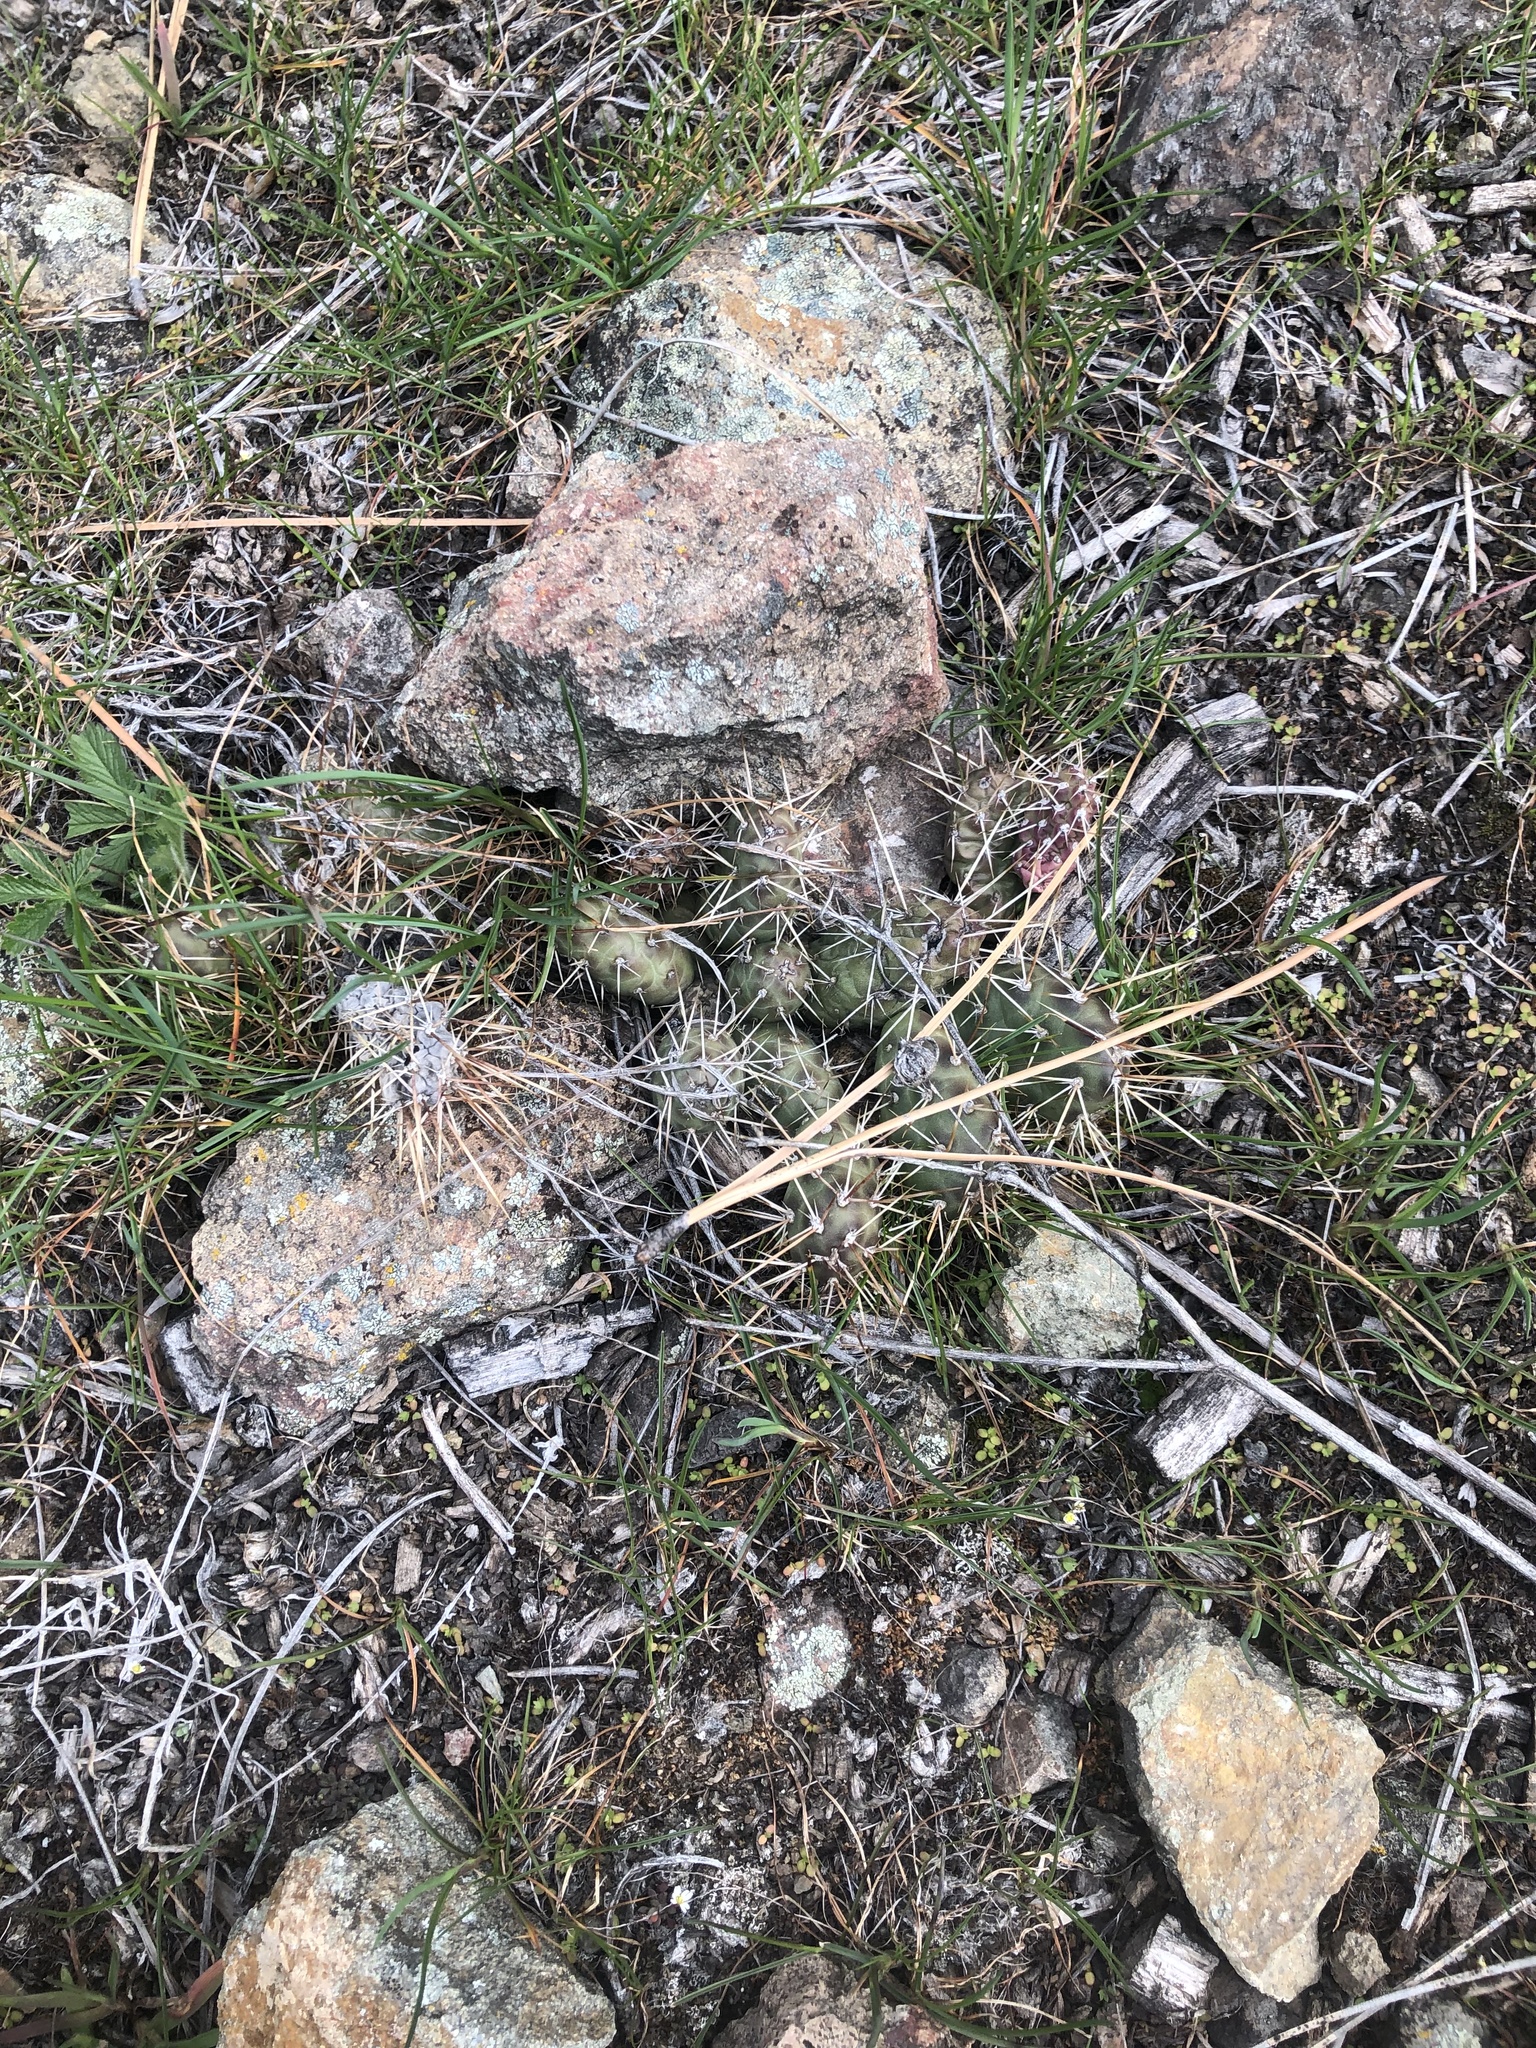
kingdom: Plantae
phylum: Tracheophyta
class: Magnoliopsida
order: Caryophyllales
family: Cactaceae
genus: Opuntia
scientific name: Opuntia fragilis
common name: Brittle cactus
